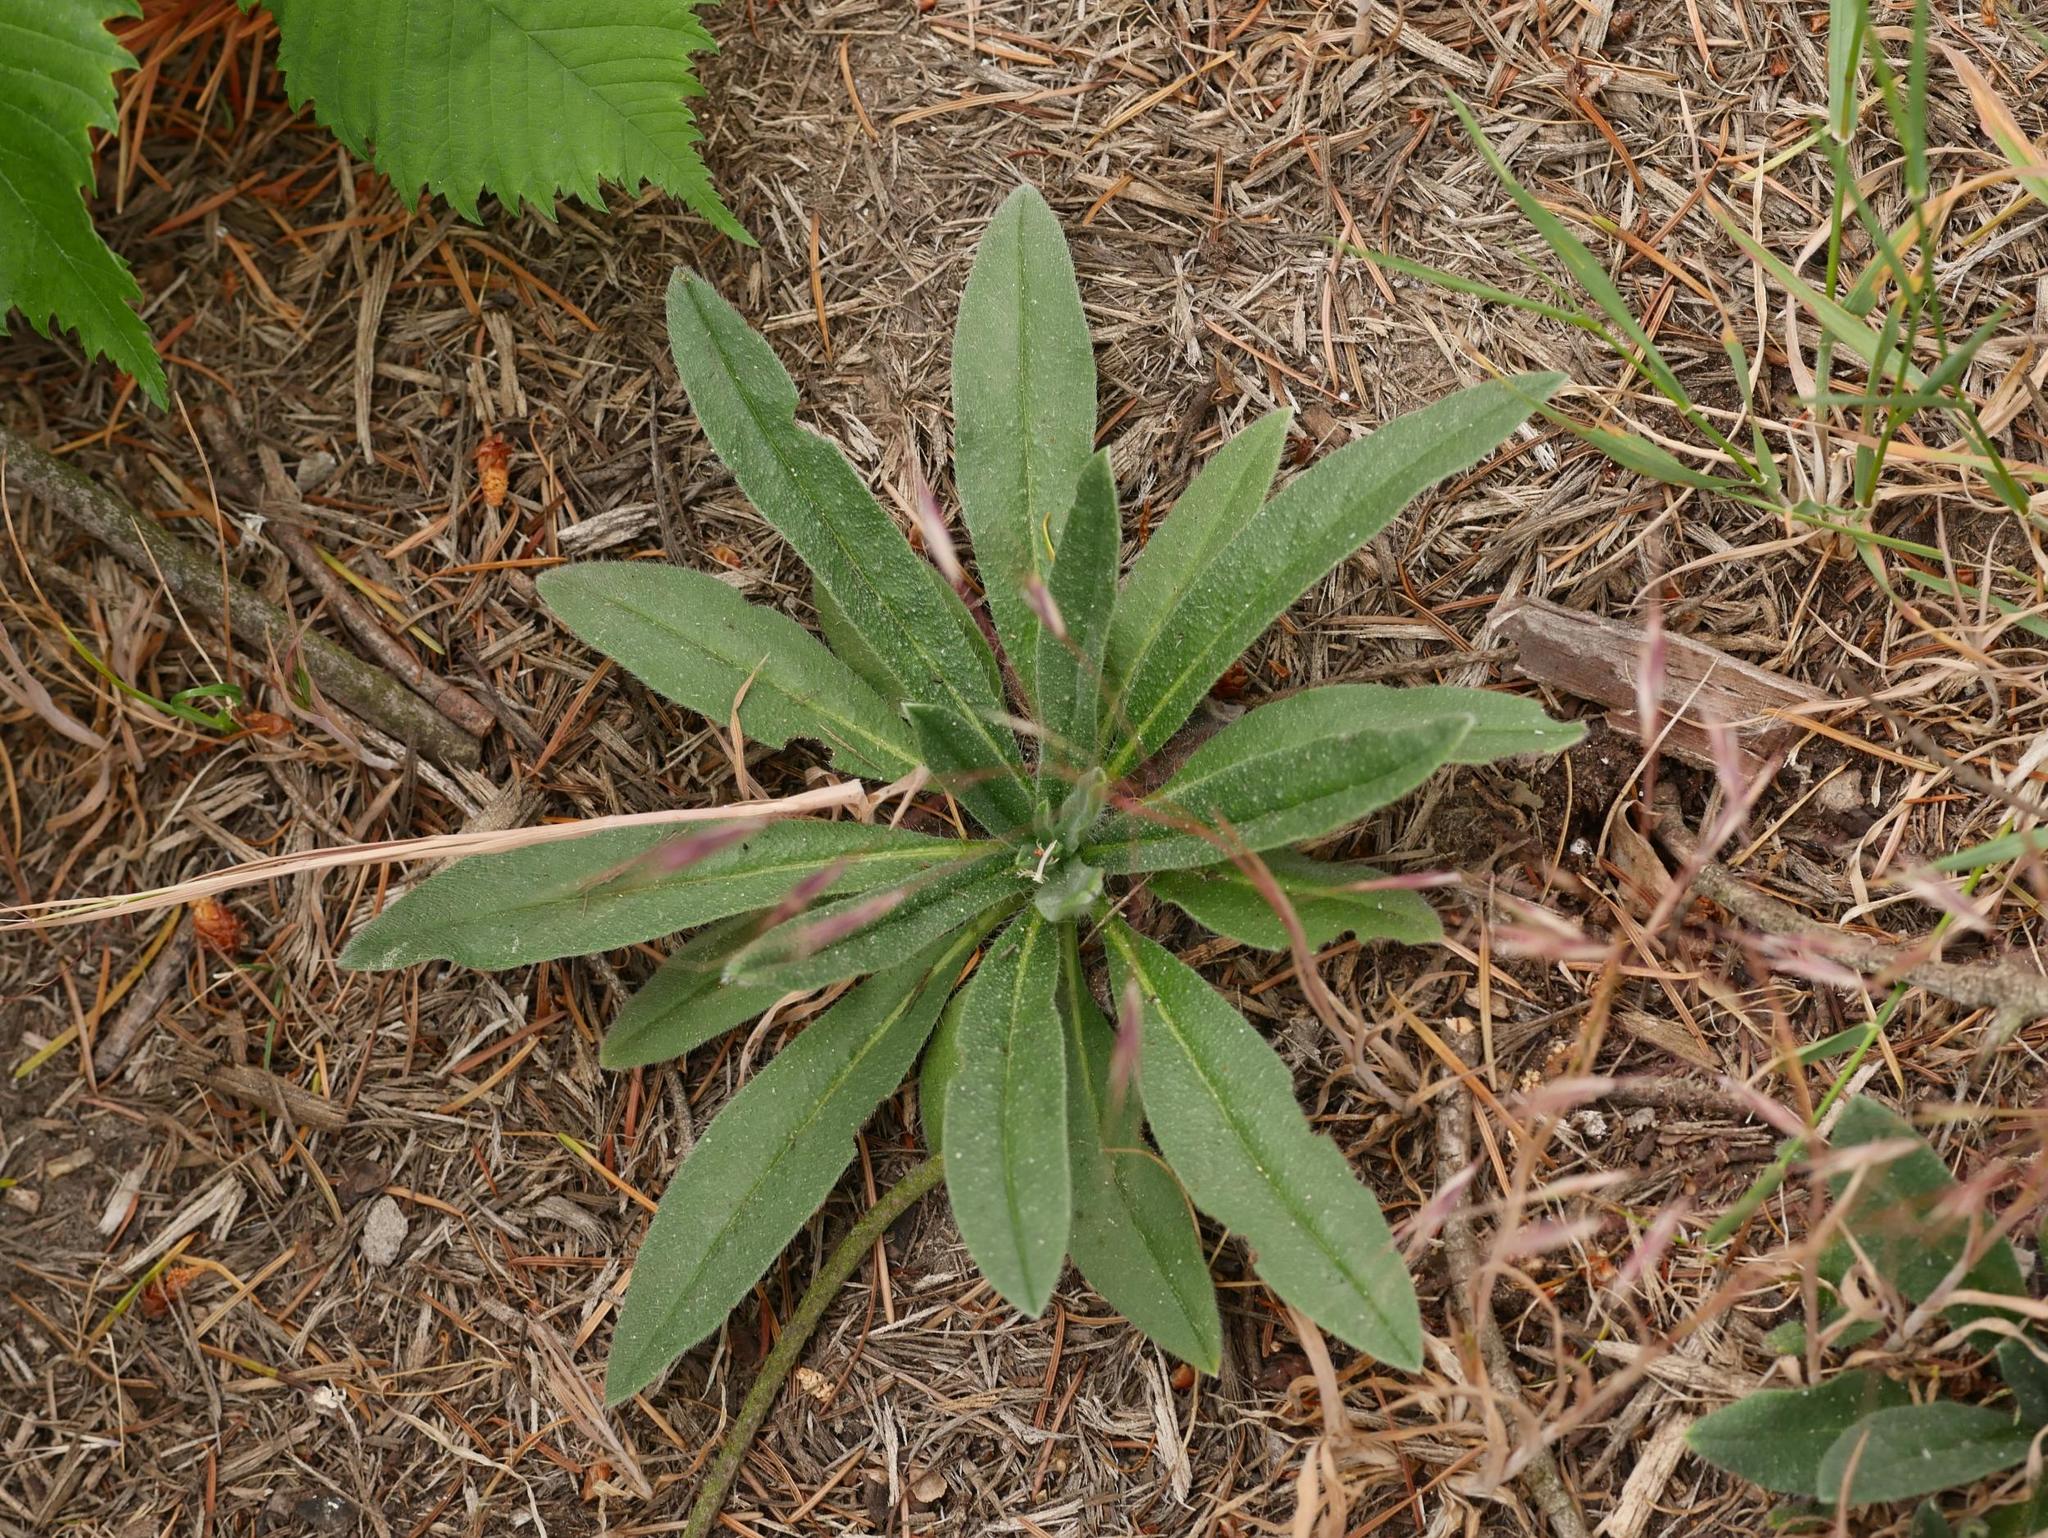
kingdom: Plantae
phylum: Tracheophyta
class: Magnoliopsida
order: Boraginales
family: Boraginaceae
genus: Echium
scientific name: Echium vulgare
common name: Common viper's bugloss
